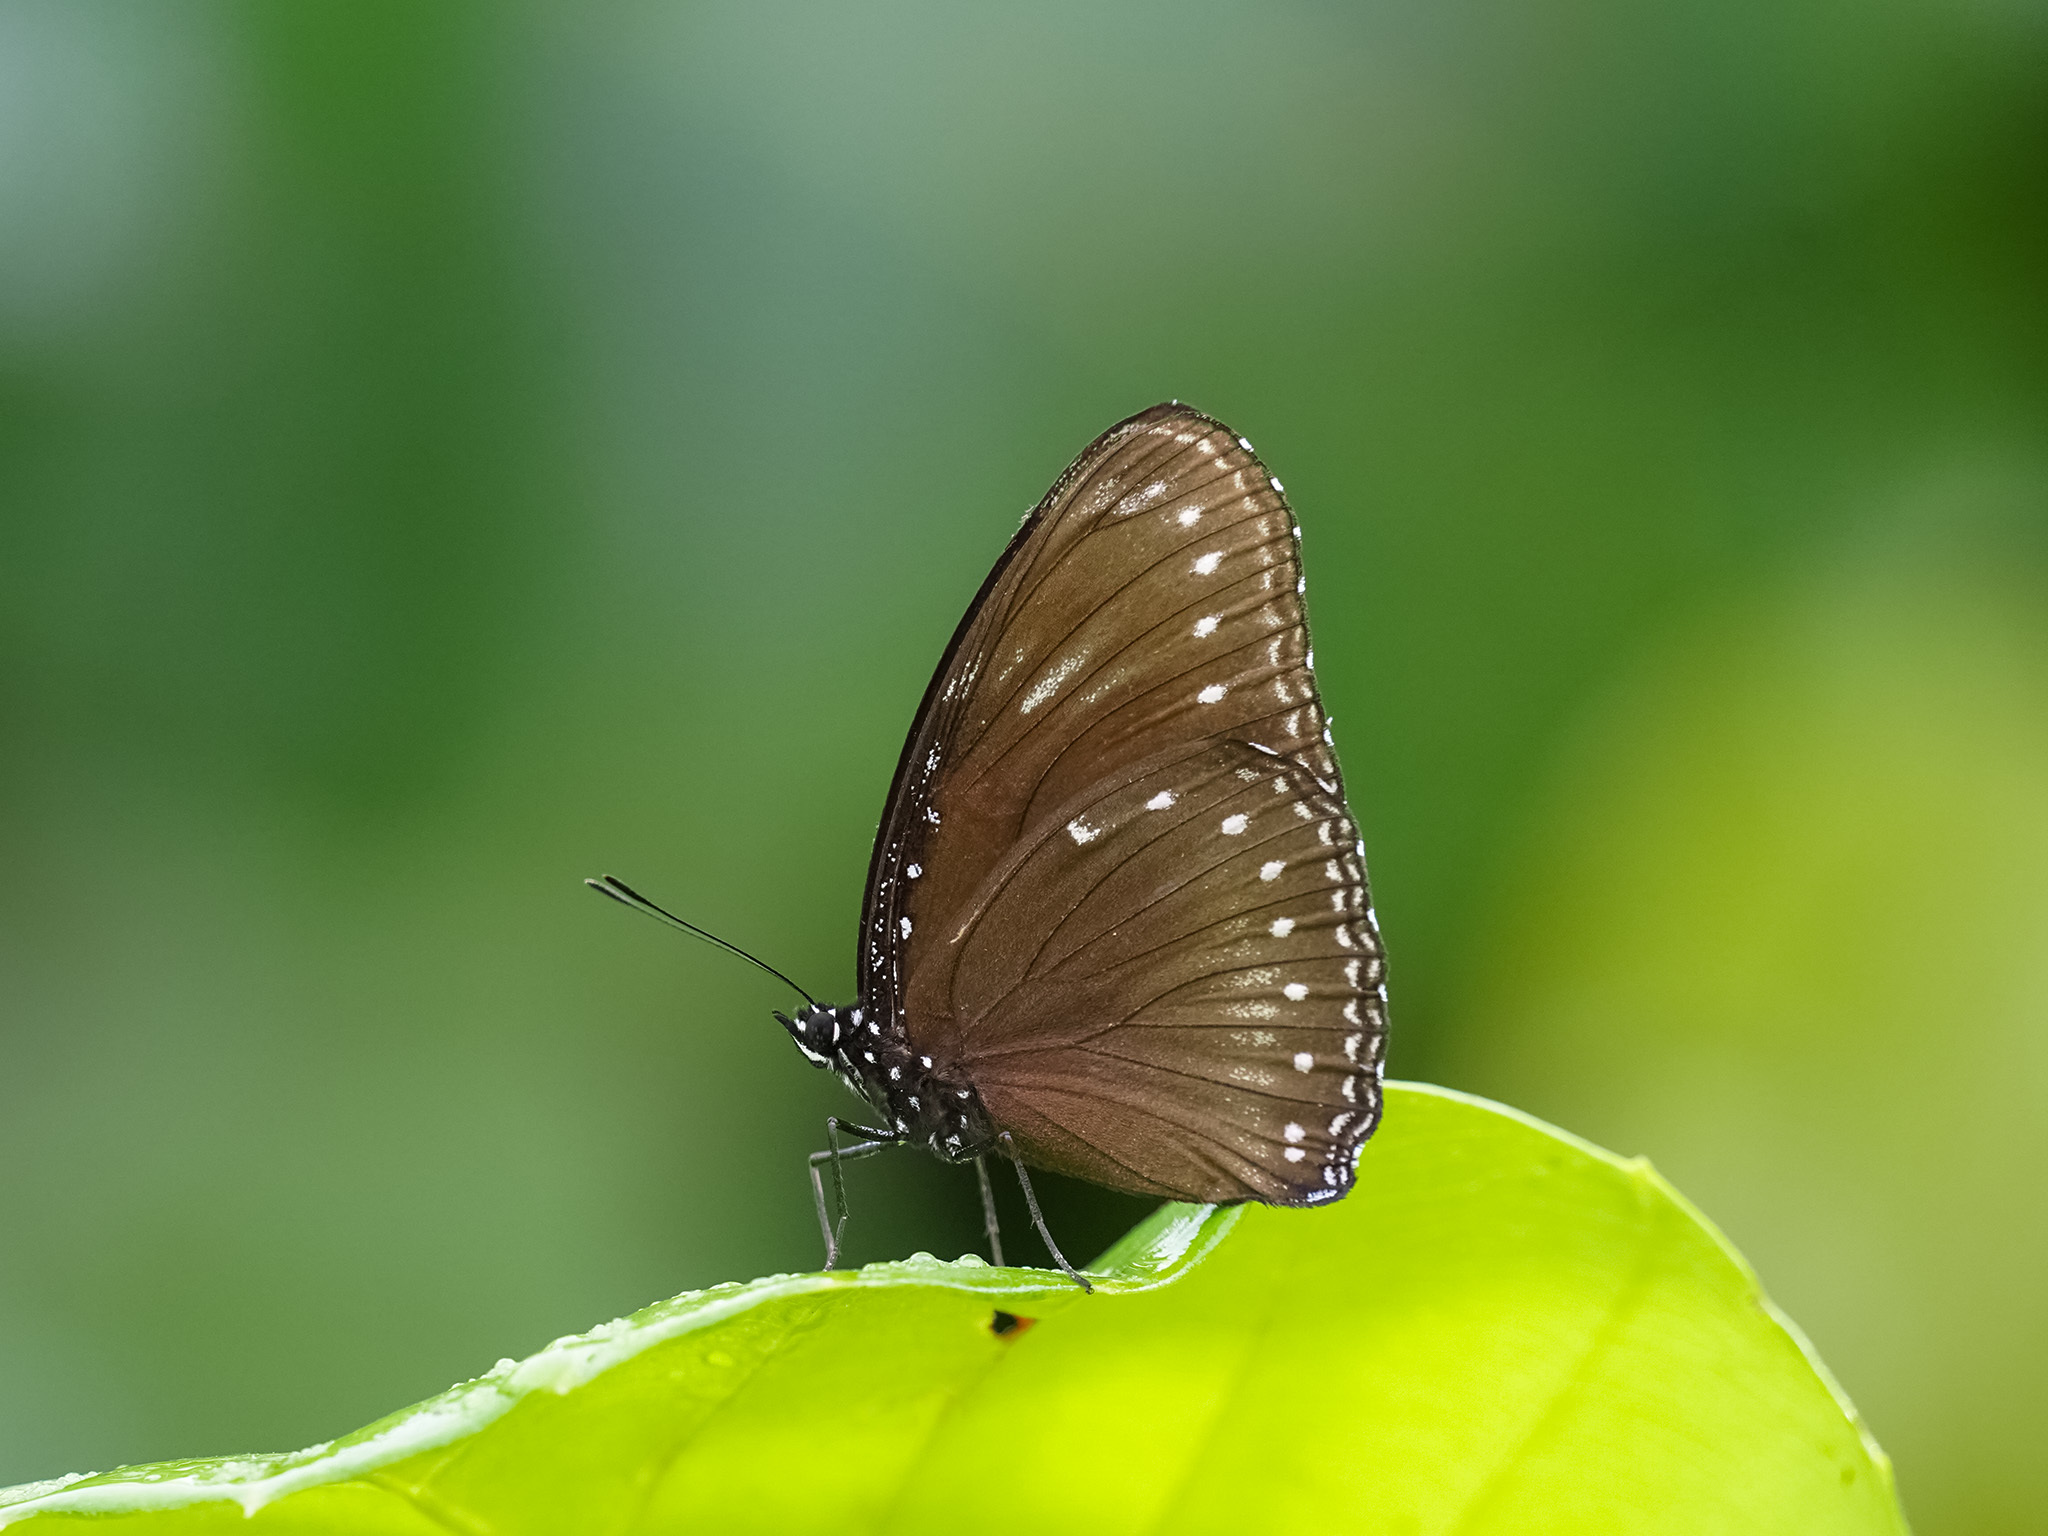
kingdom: Animalia
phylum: Arthropoda
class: Insecta
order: Lepidoptera
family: Nymphalidae
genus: Hypolimnas
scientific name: Hypolimnas anomala
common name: Malayan eggfly
